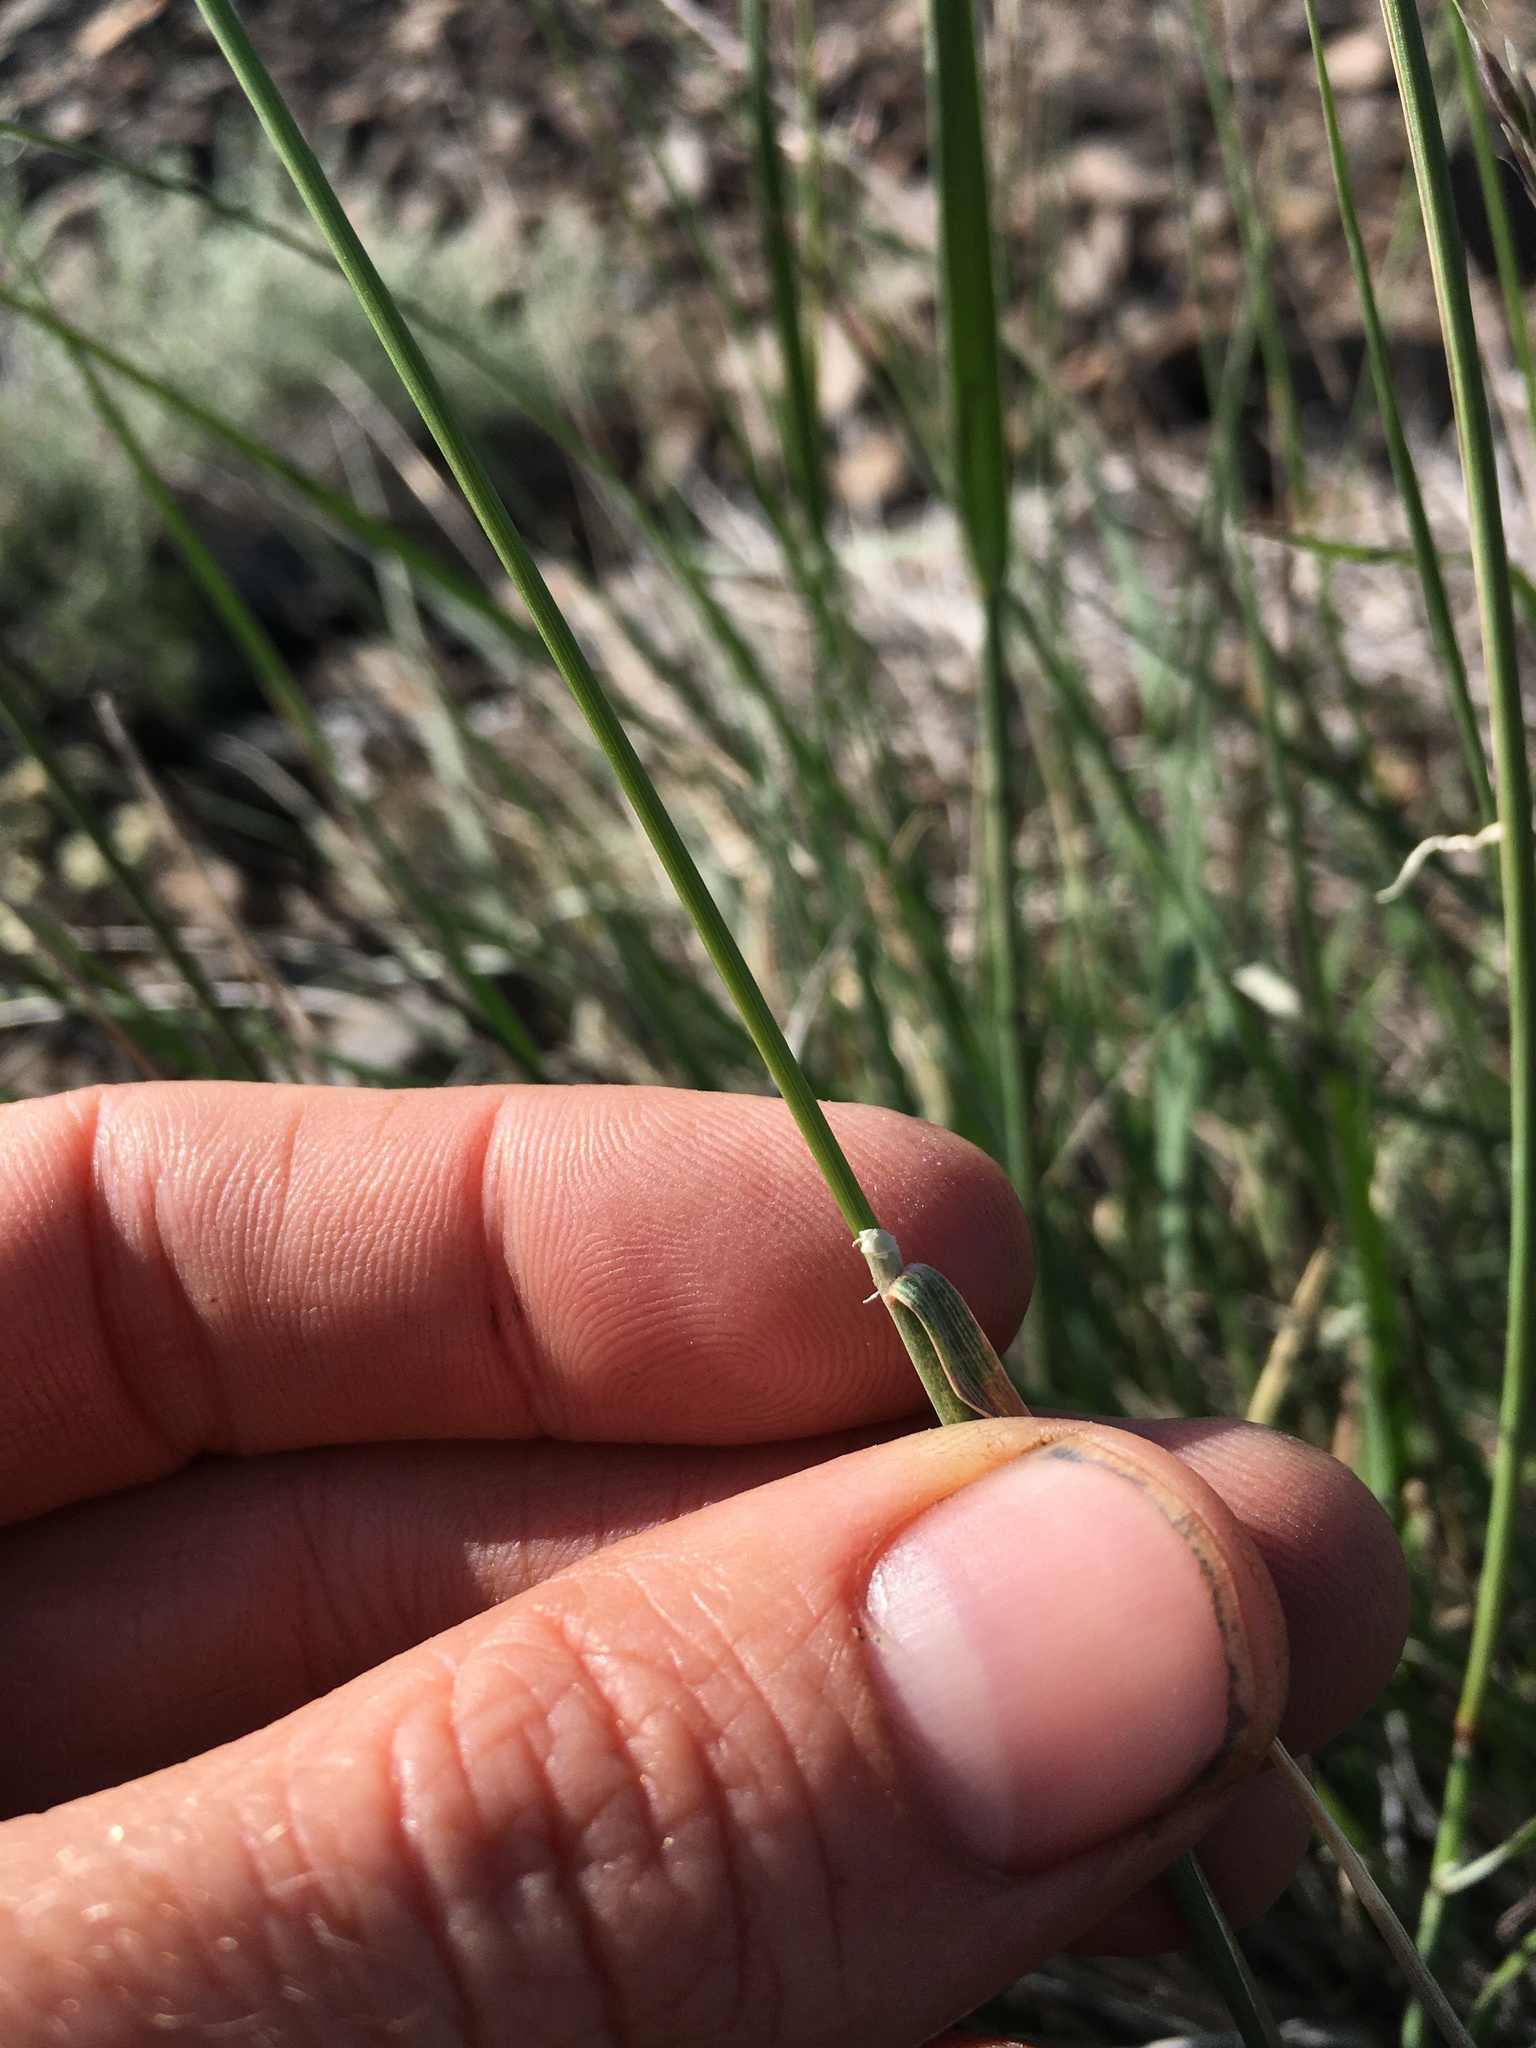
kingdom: Plantae
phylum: Tracheophyta
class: Liliopsida
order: Poales
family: Poaceae
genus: Calamagrostis
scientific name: Calamagrostis purpurascens
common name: Purple reedgrass
